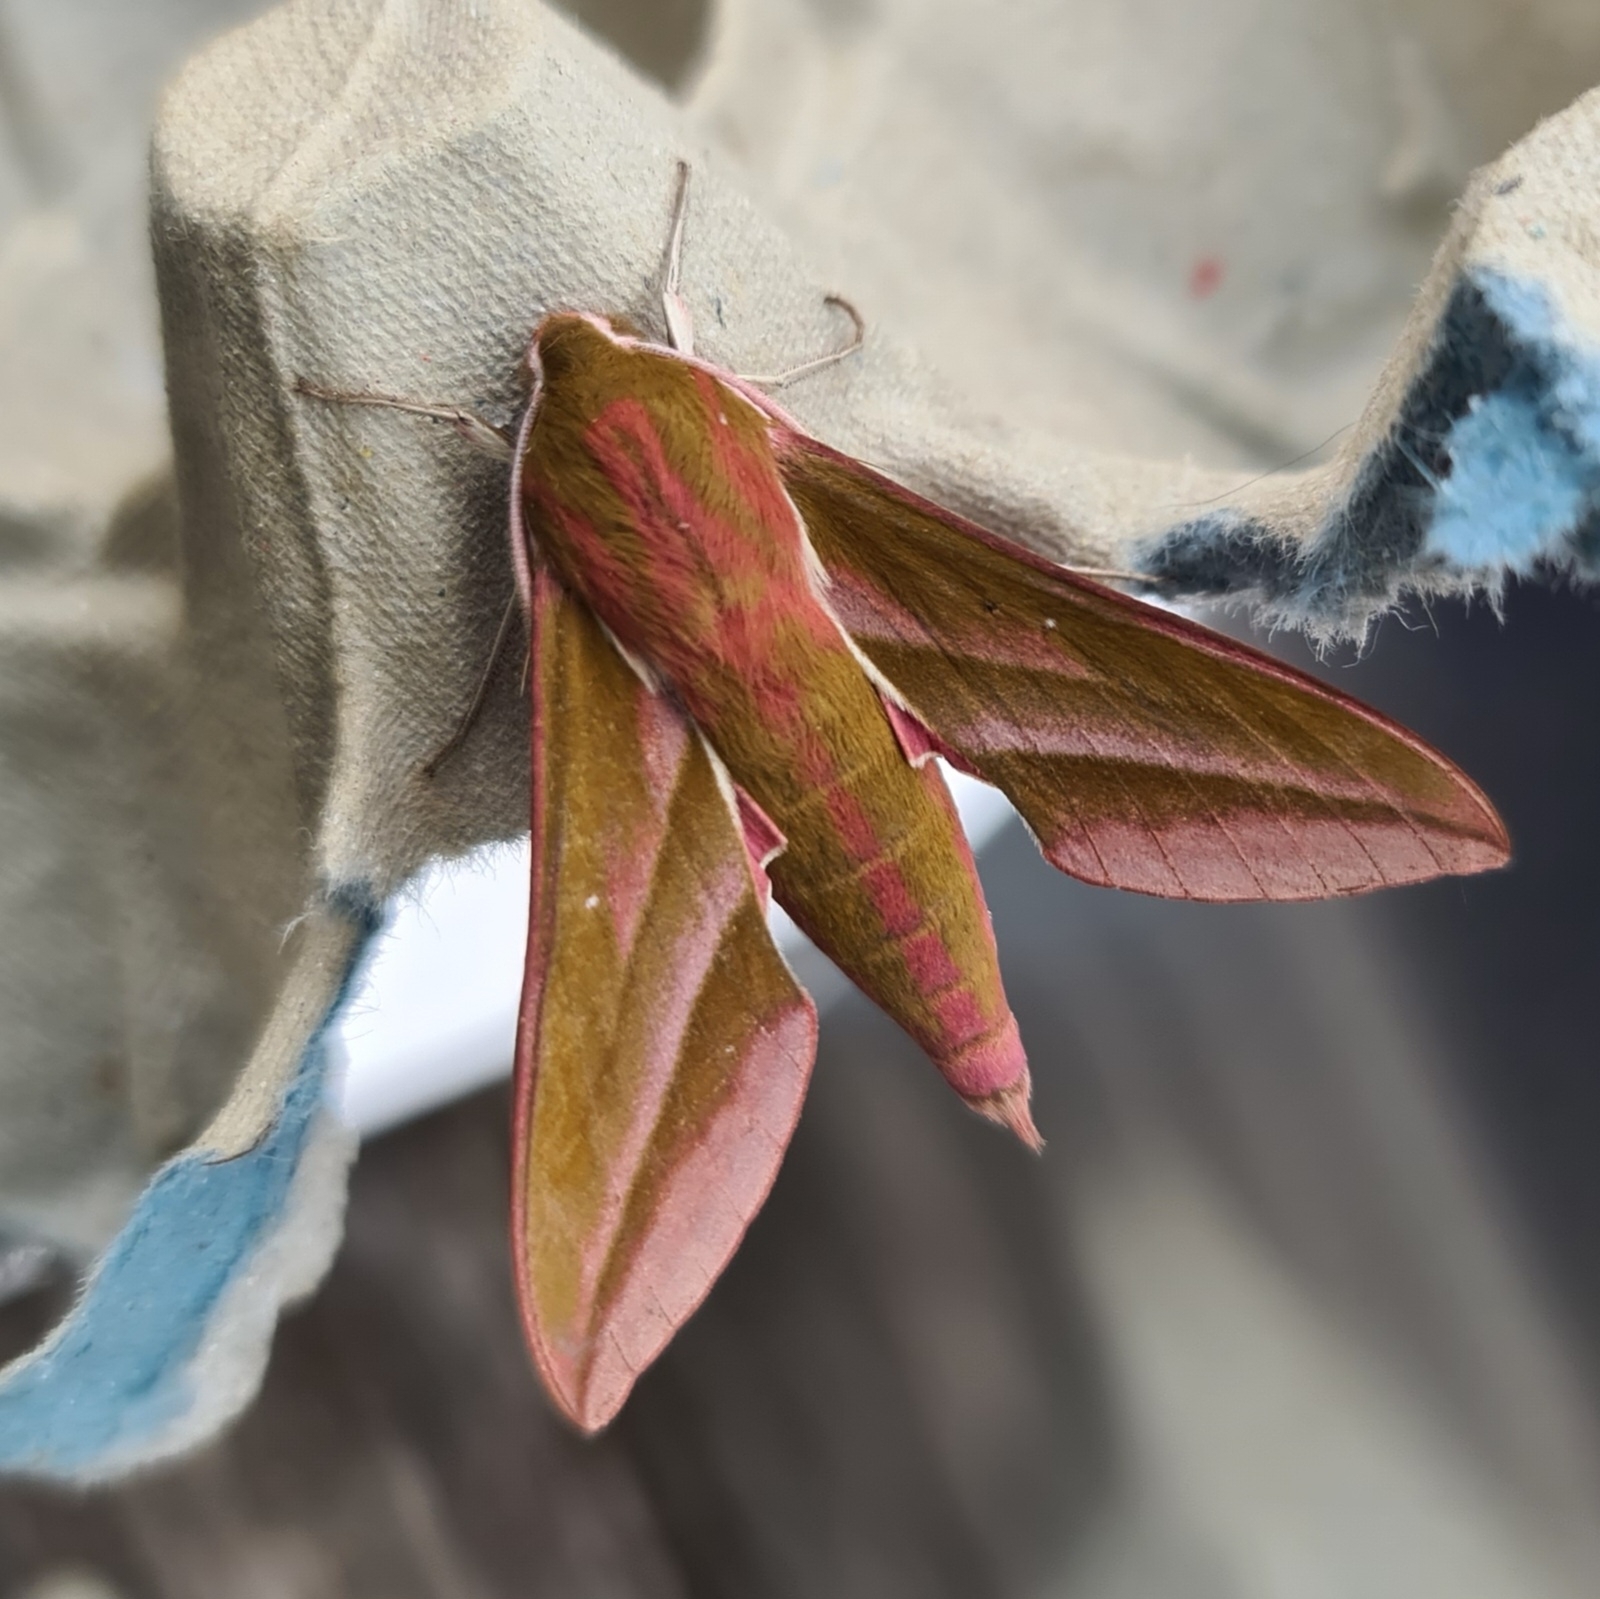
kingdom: Animalia
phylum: Arthropoda
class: Insecta
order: Lepidoptera
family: Sphingidae
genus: Deilephila
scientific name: Deilephila elpenor
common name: Elephant hawk-moth
